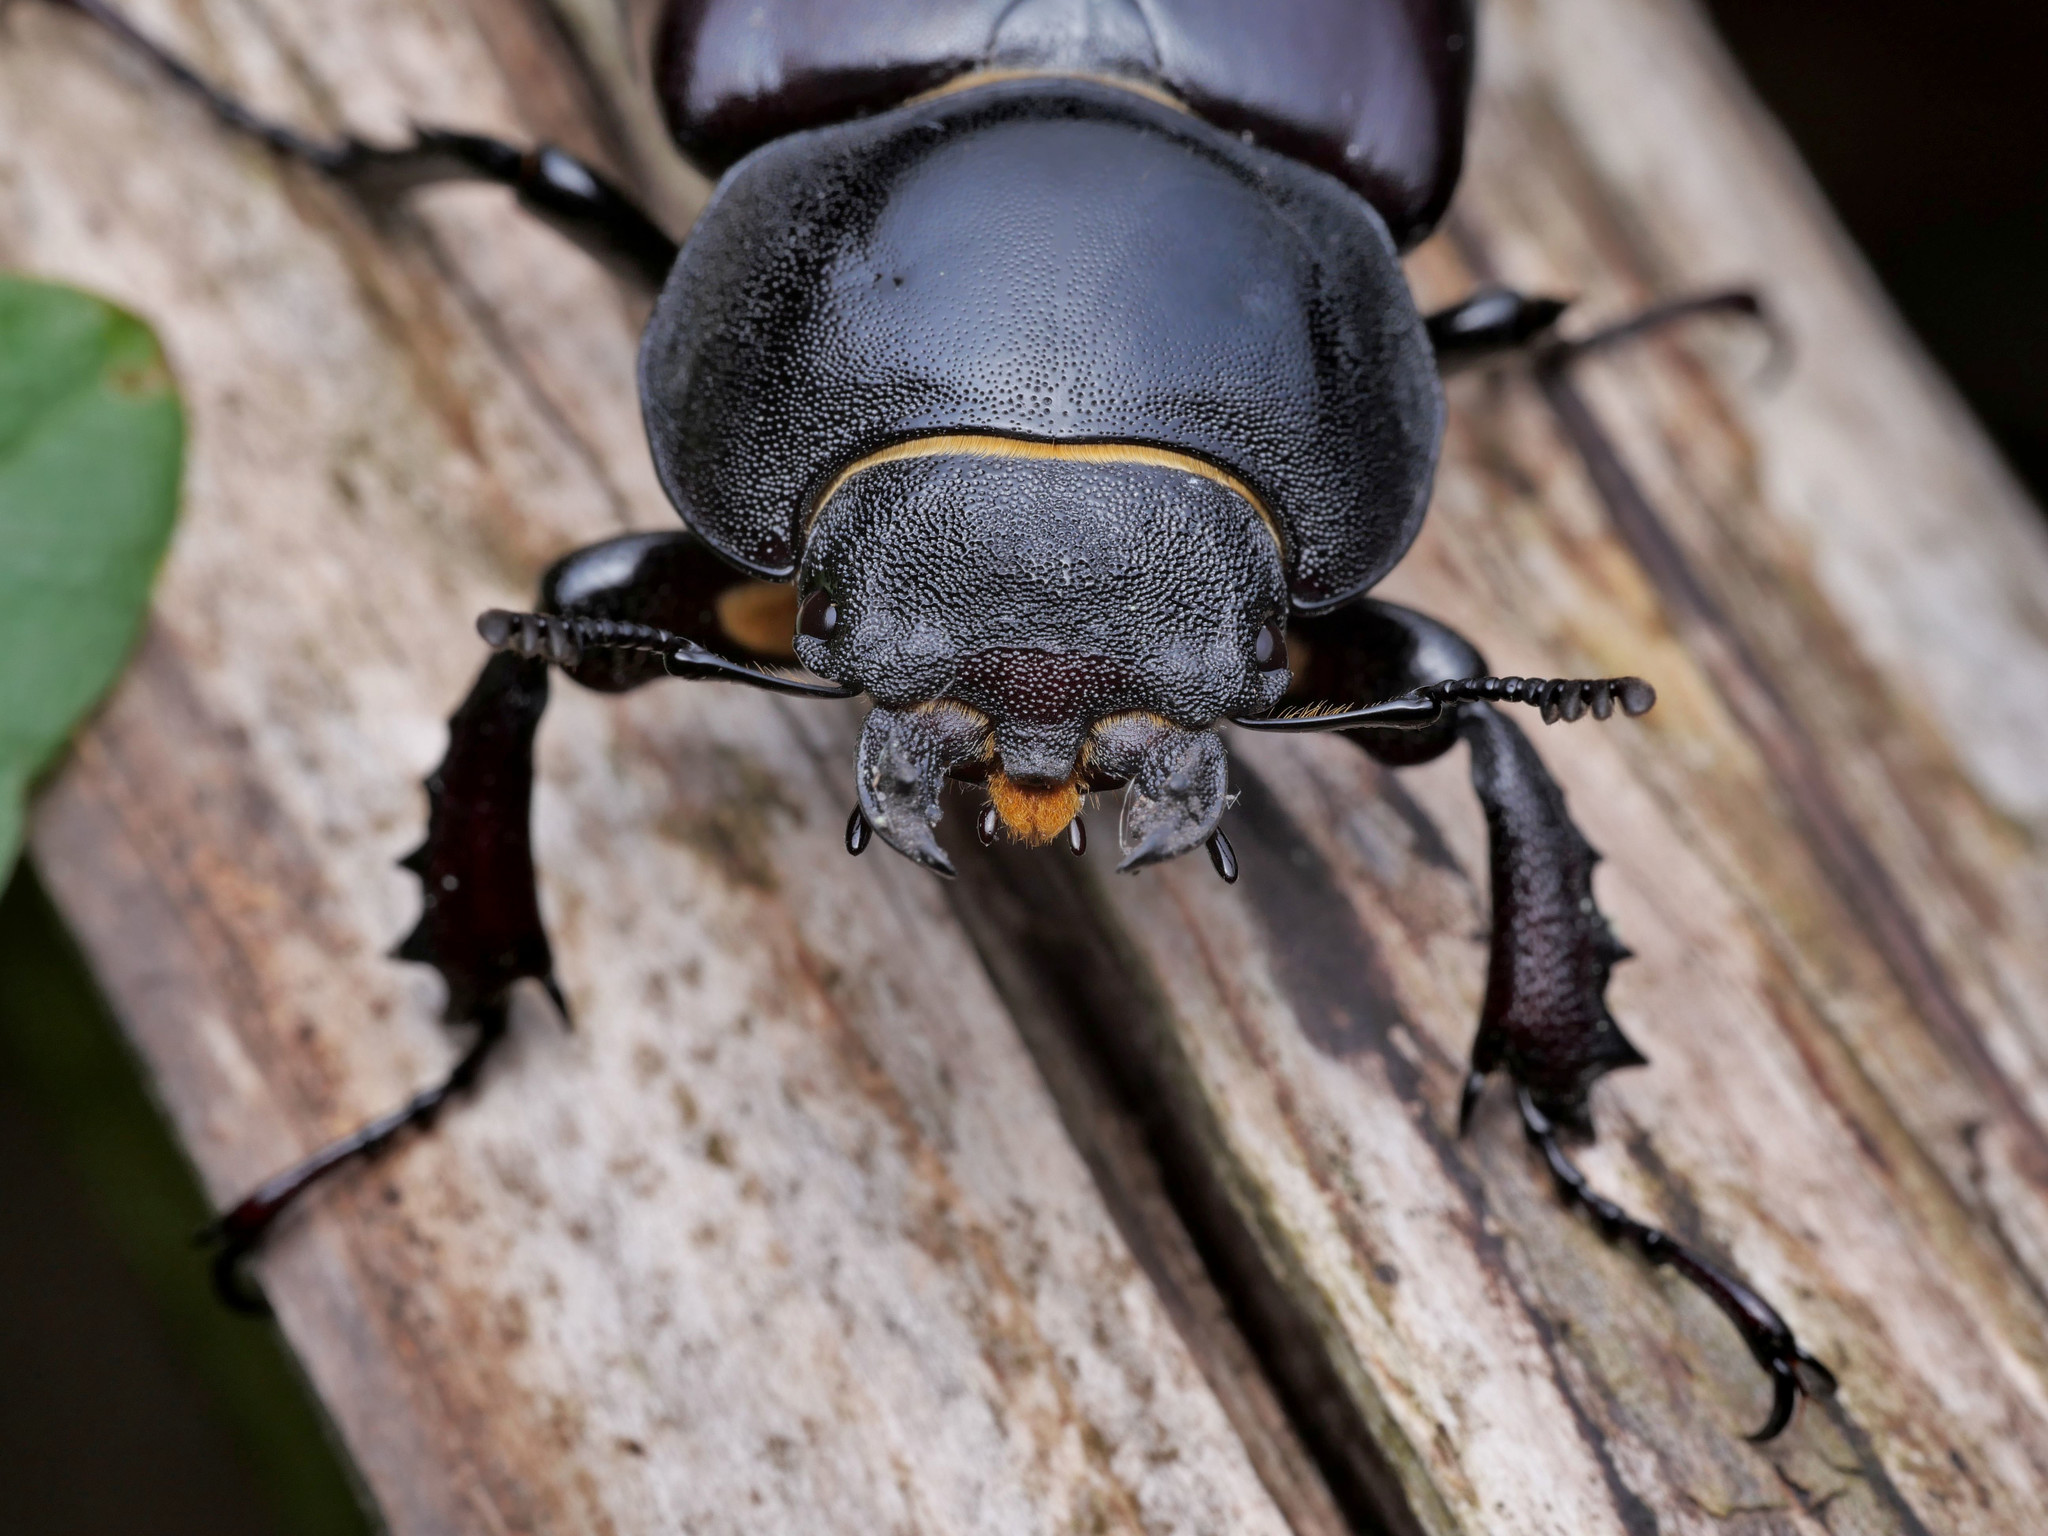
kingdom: Animalia
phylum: Arthropoda
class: Insecta
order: Coleoptera
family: Lucanidae
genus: Lucanus
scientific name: Lucanus cervus
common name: Stag beetle
